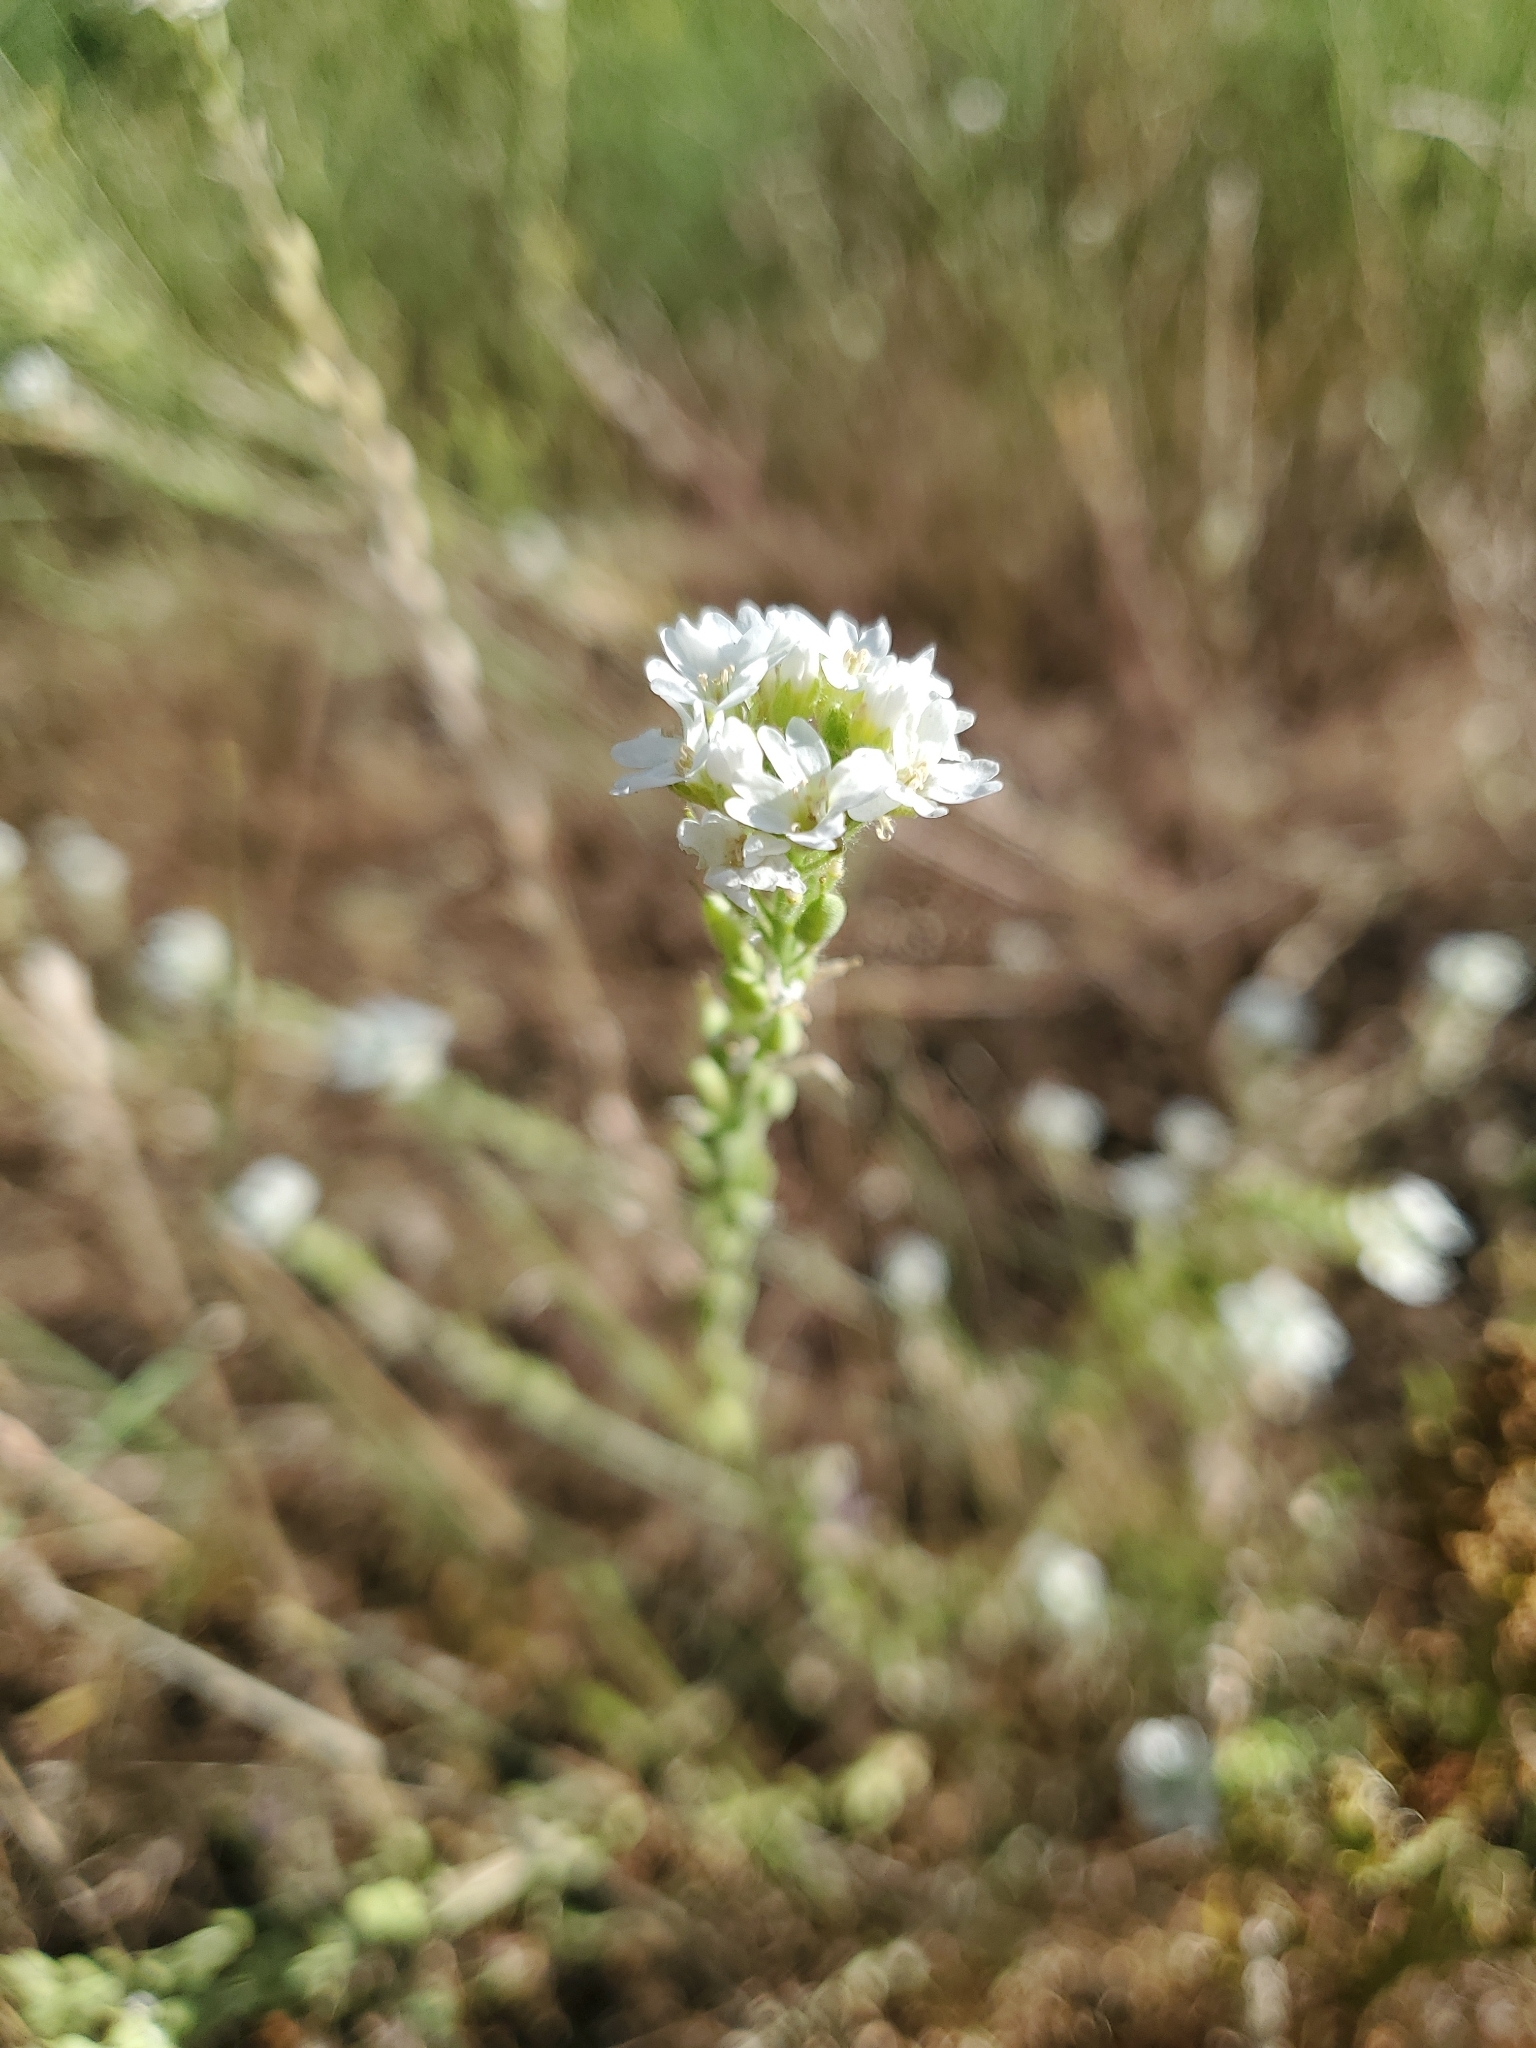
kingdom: Plantae
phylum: Tracheophyta
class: Magnoliopsida
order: Brassicales
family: Brassicaceae
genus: Berteroa
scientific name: Berteroa incana
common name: Hoary alison
